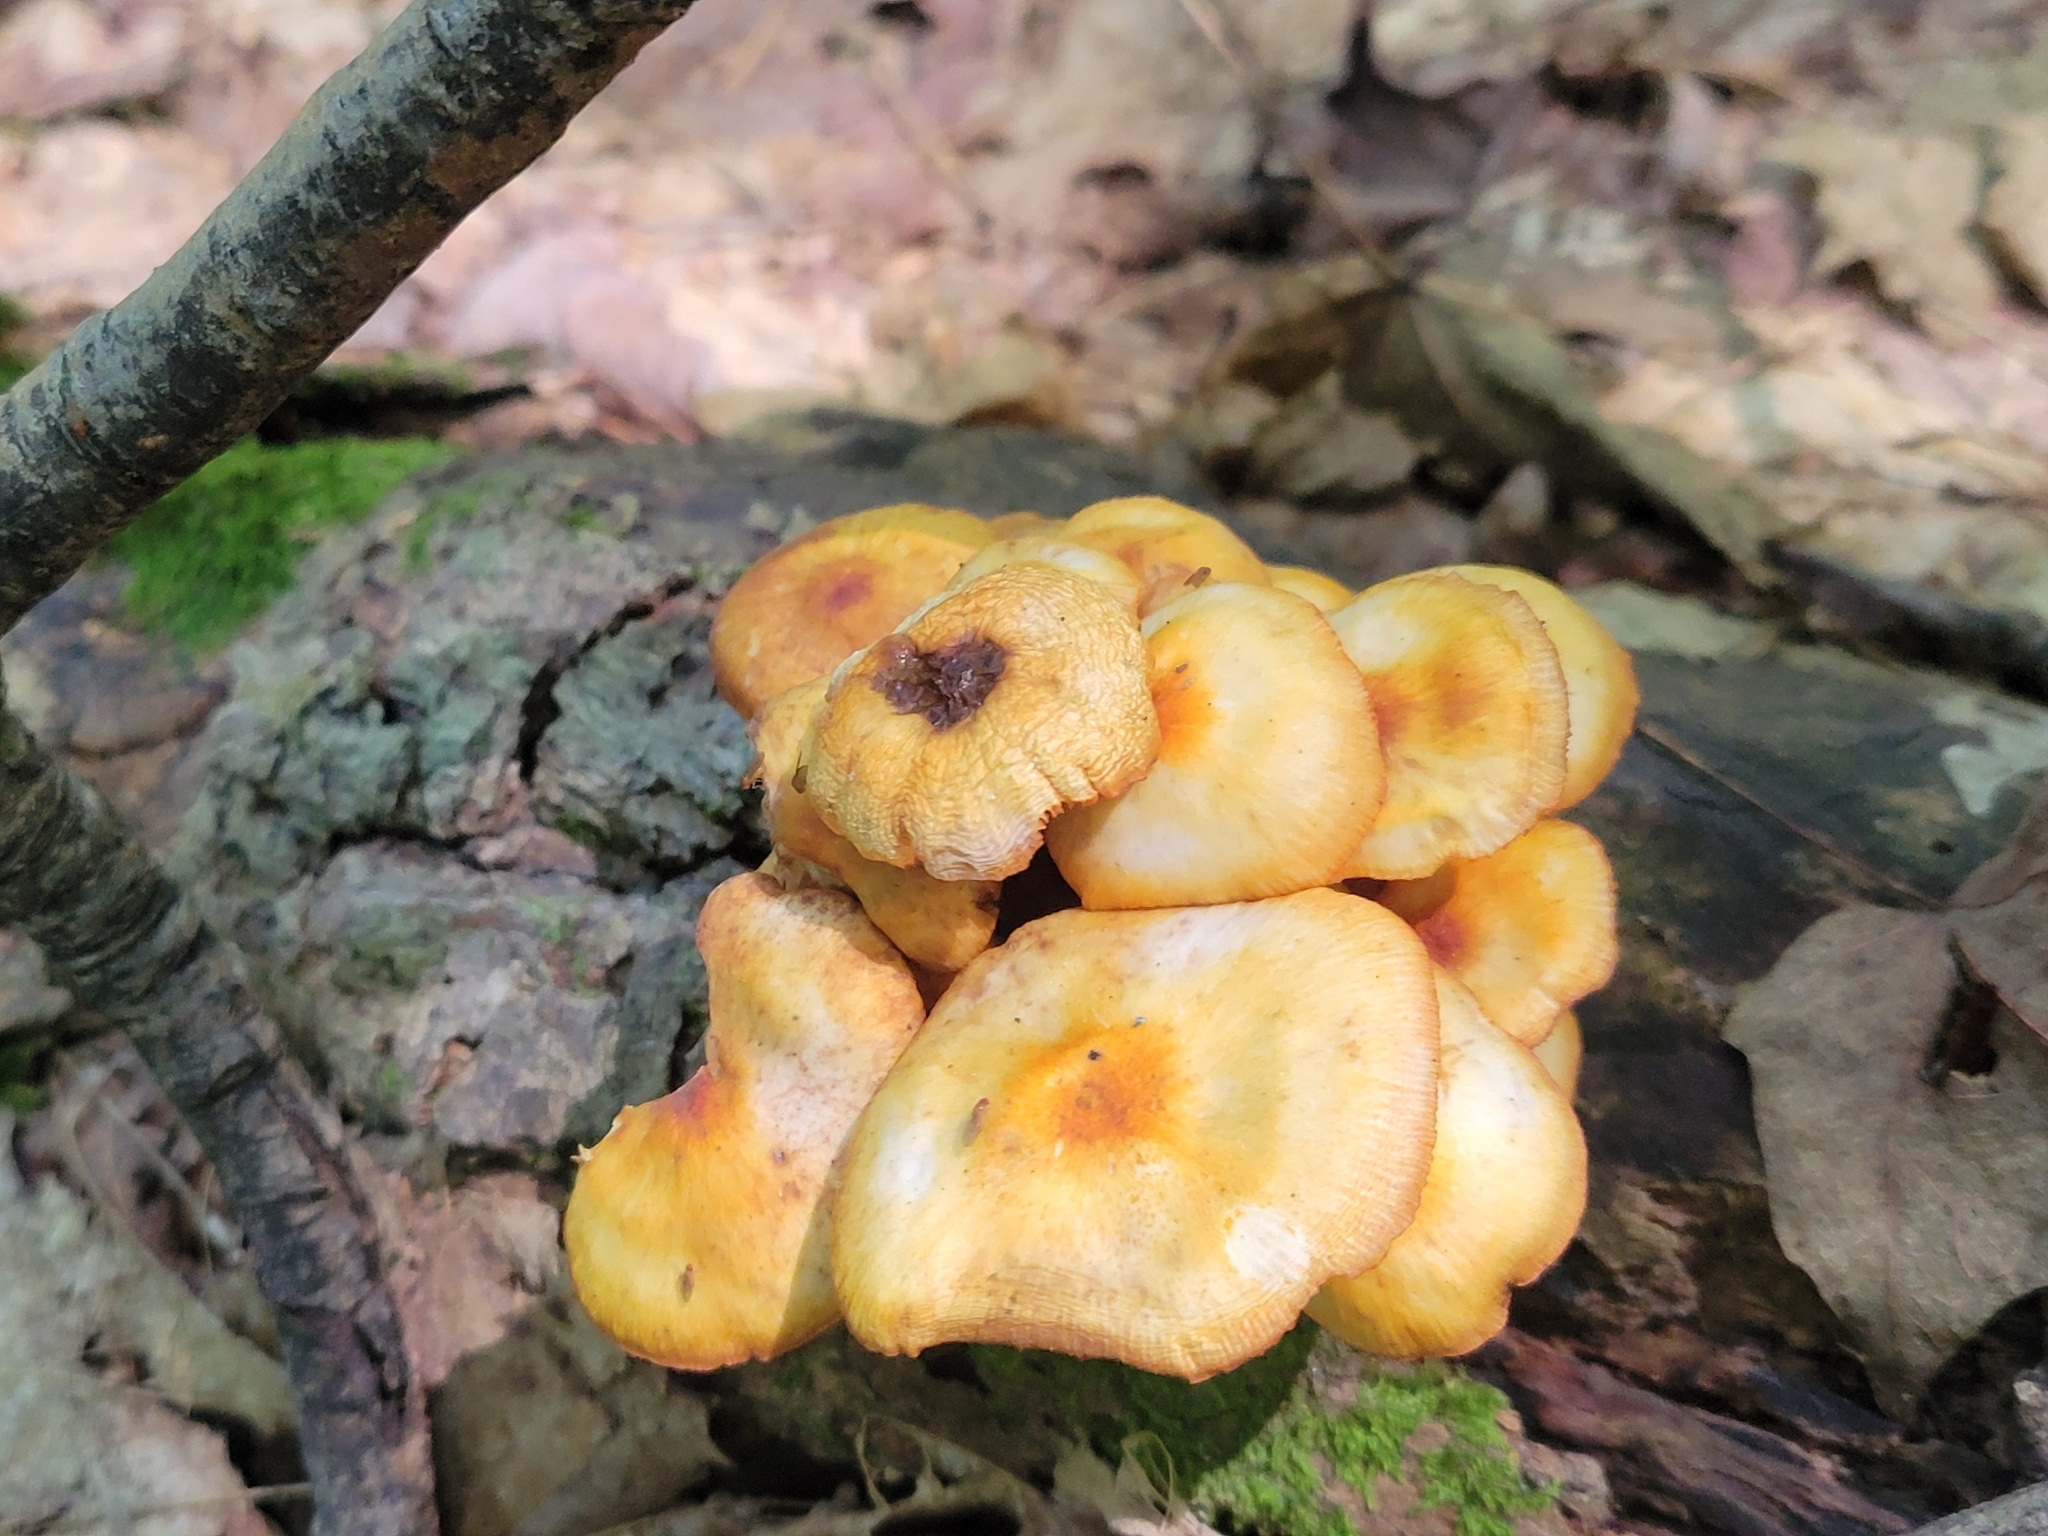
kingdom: Fungi
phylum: Basidiomycota
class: Agaricomycetes
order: Agaricales
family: Mycenaceae
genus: Mycena
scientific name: Mycena leaiana
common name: Orange mycena
